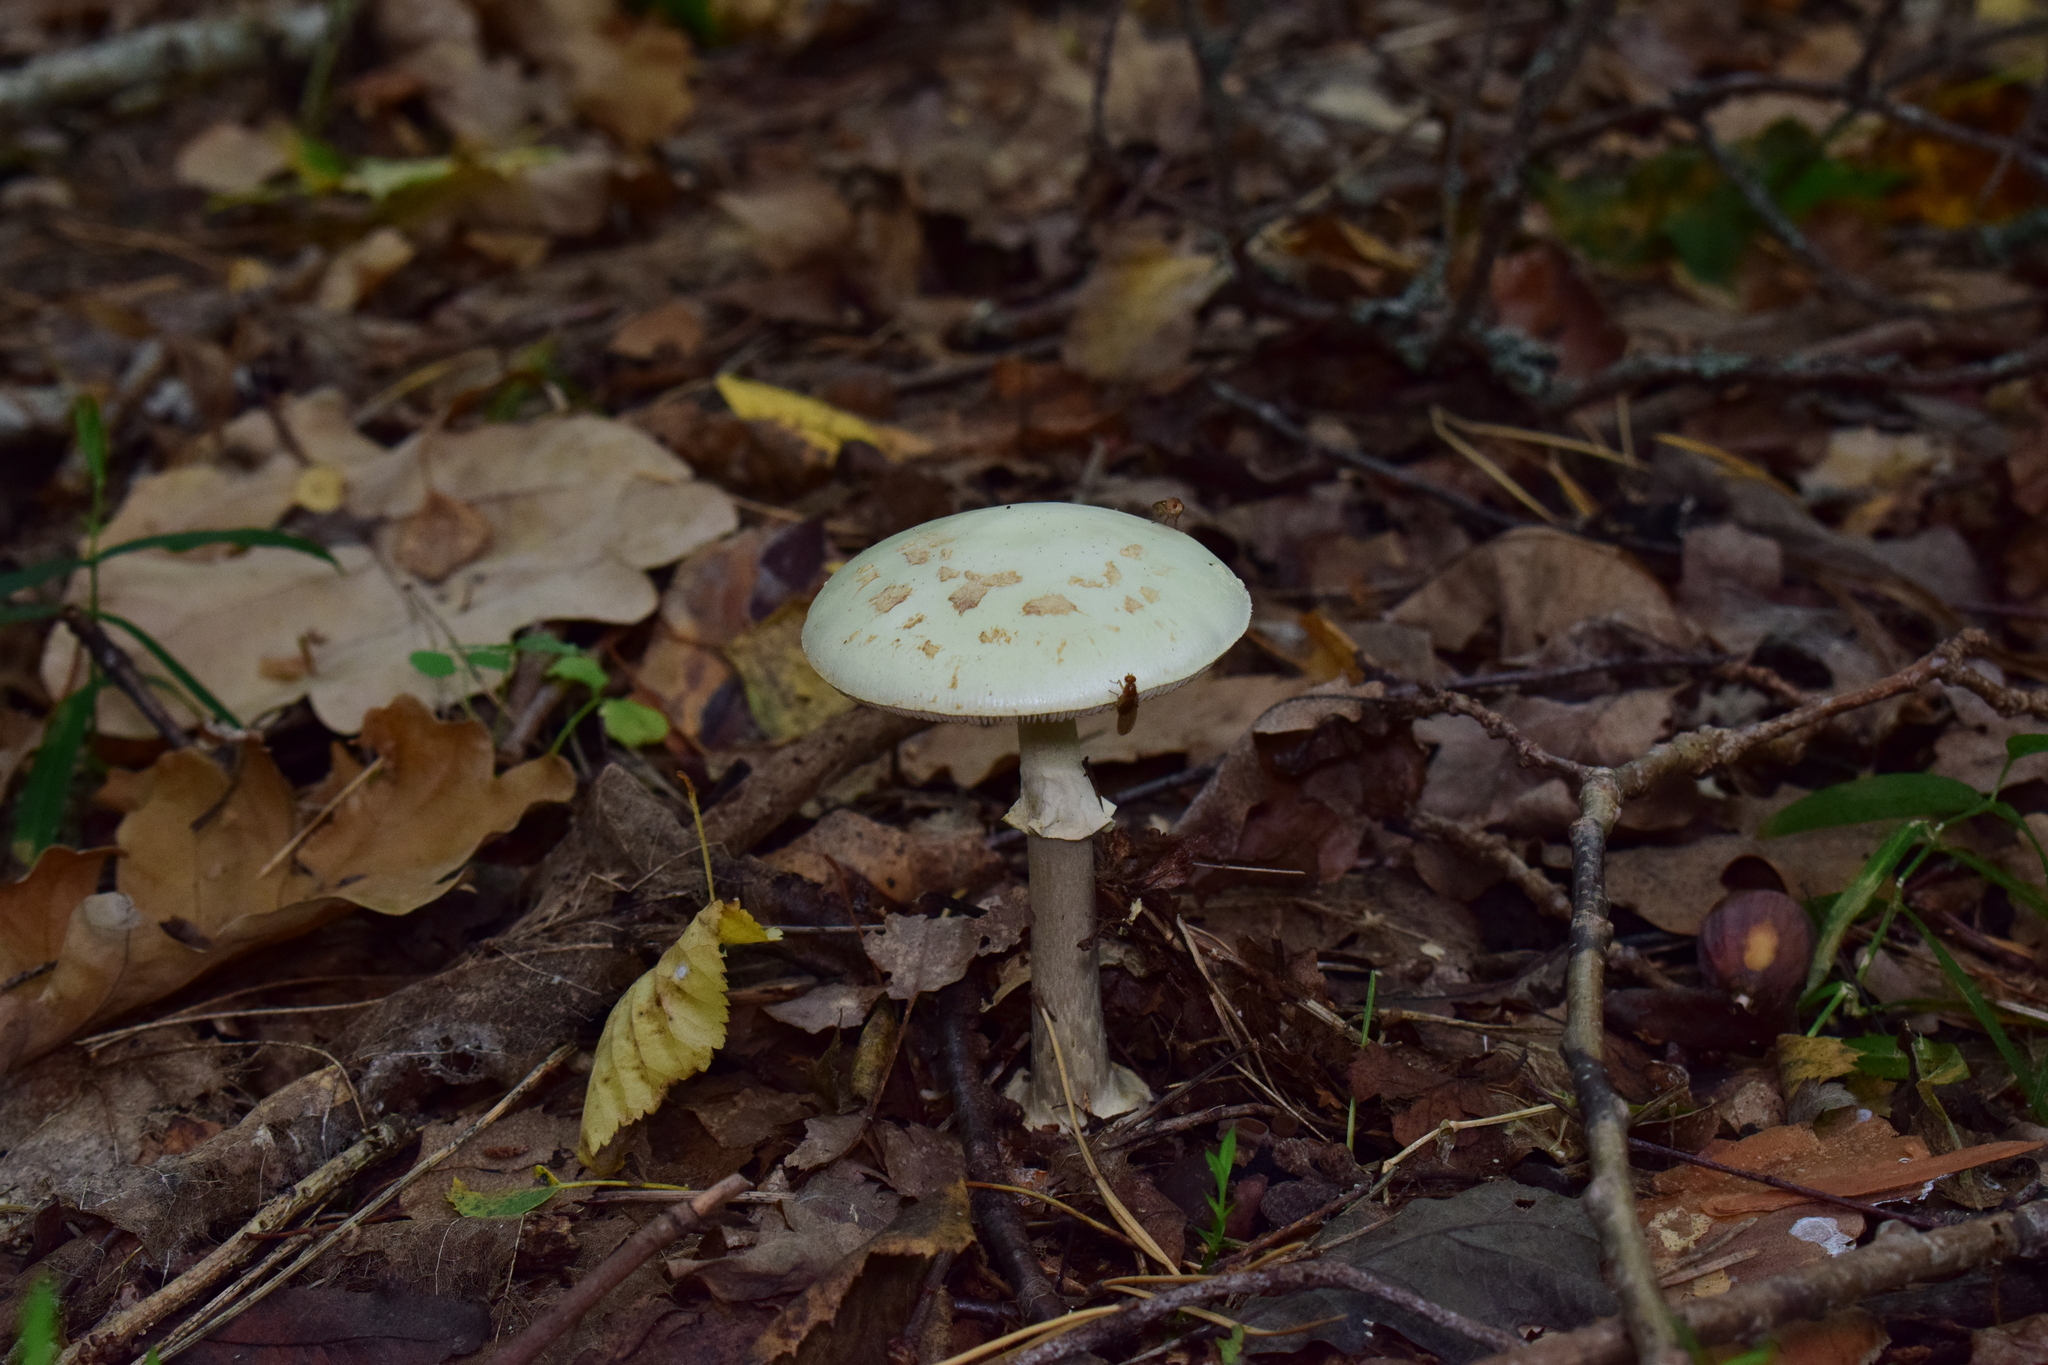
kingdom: Fungi
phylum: Basidiomycota
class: Agaricomycetes
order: Agaricales
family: Amanitaceae
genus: Amanita
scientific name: Amanita citrina
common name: False death-cap
